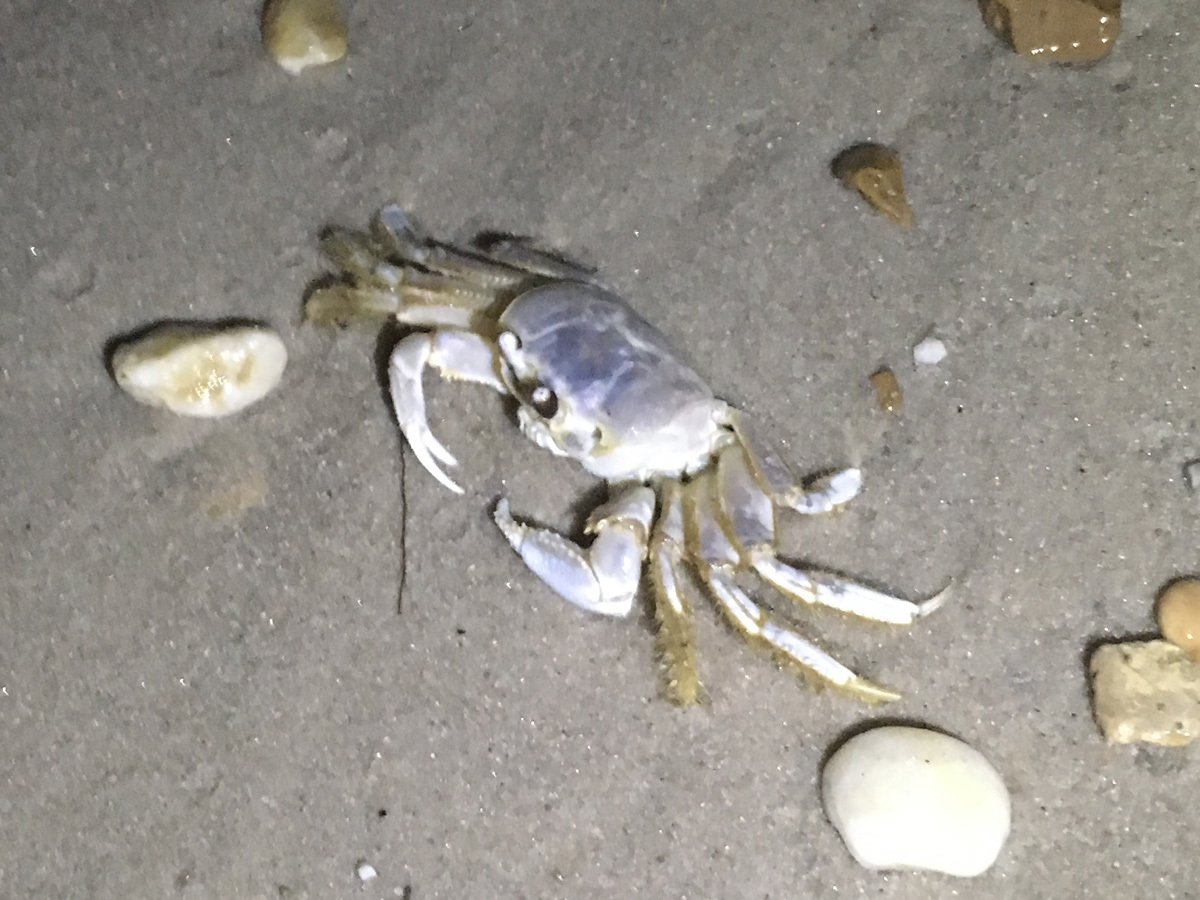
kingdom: Animalia
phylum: Arthropoda
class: Malacostraca
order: Decapoda
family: Ocypodidae
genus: Ocypode
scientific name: Ocypode quadrata
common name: Ghost crab
